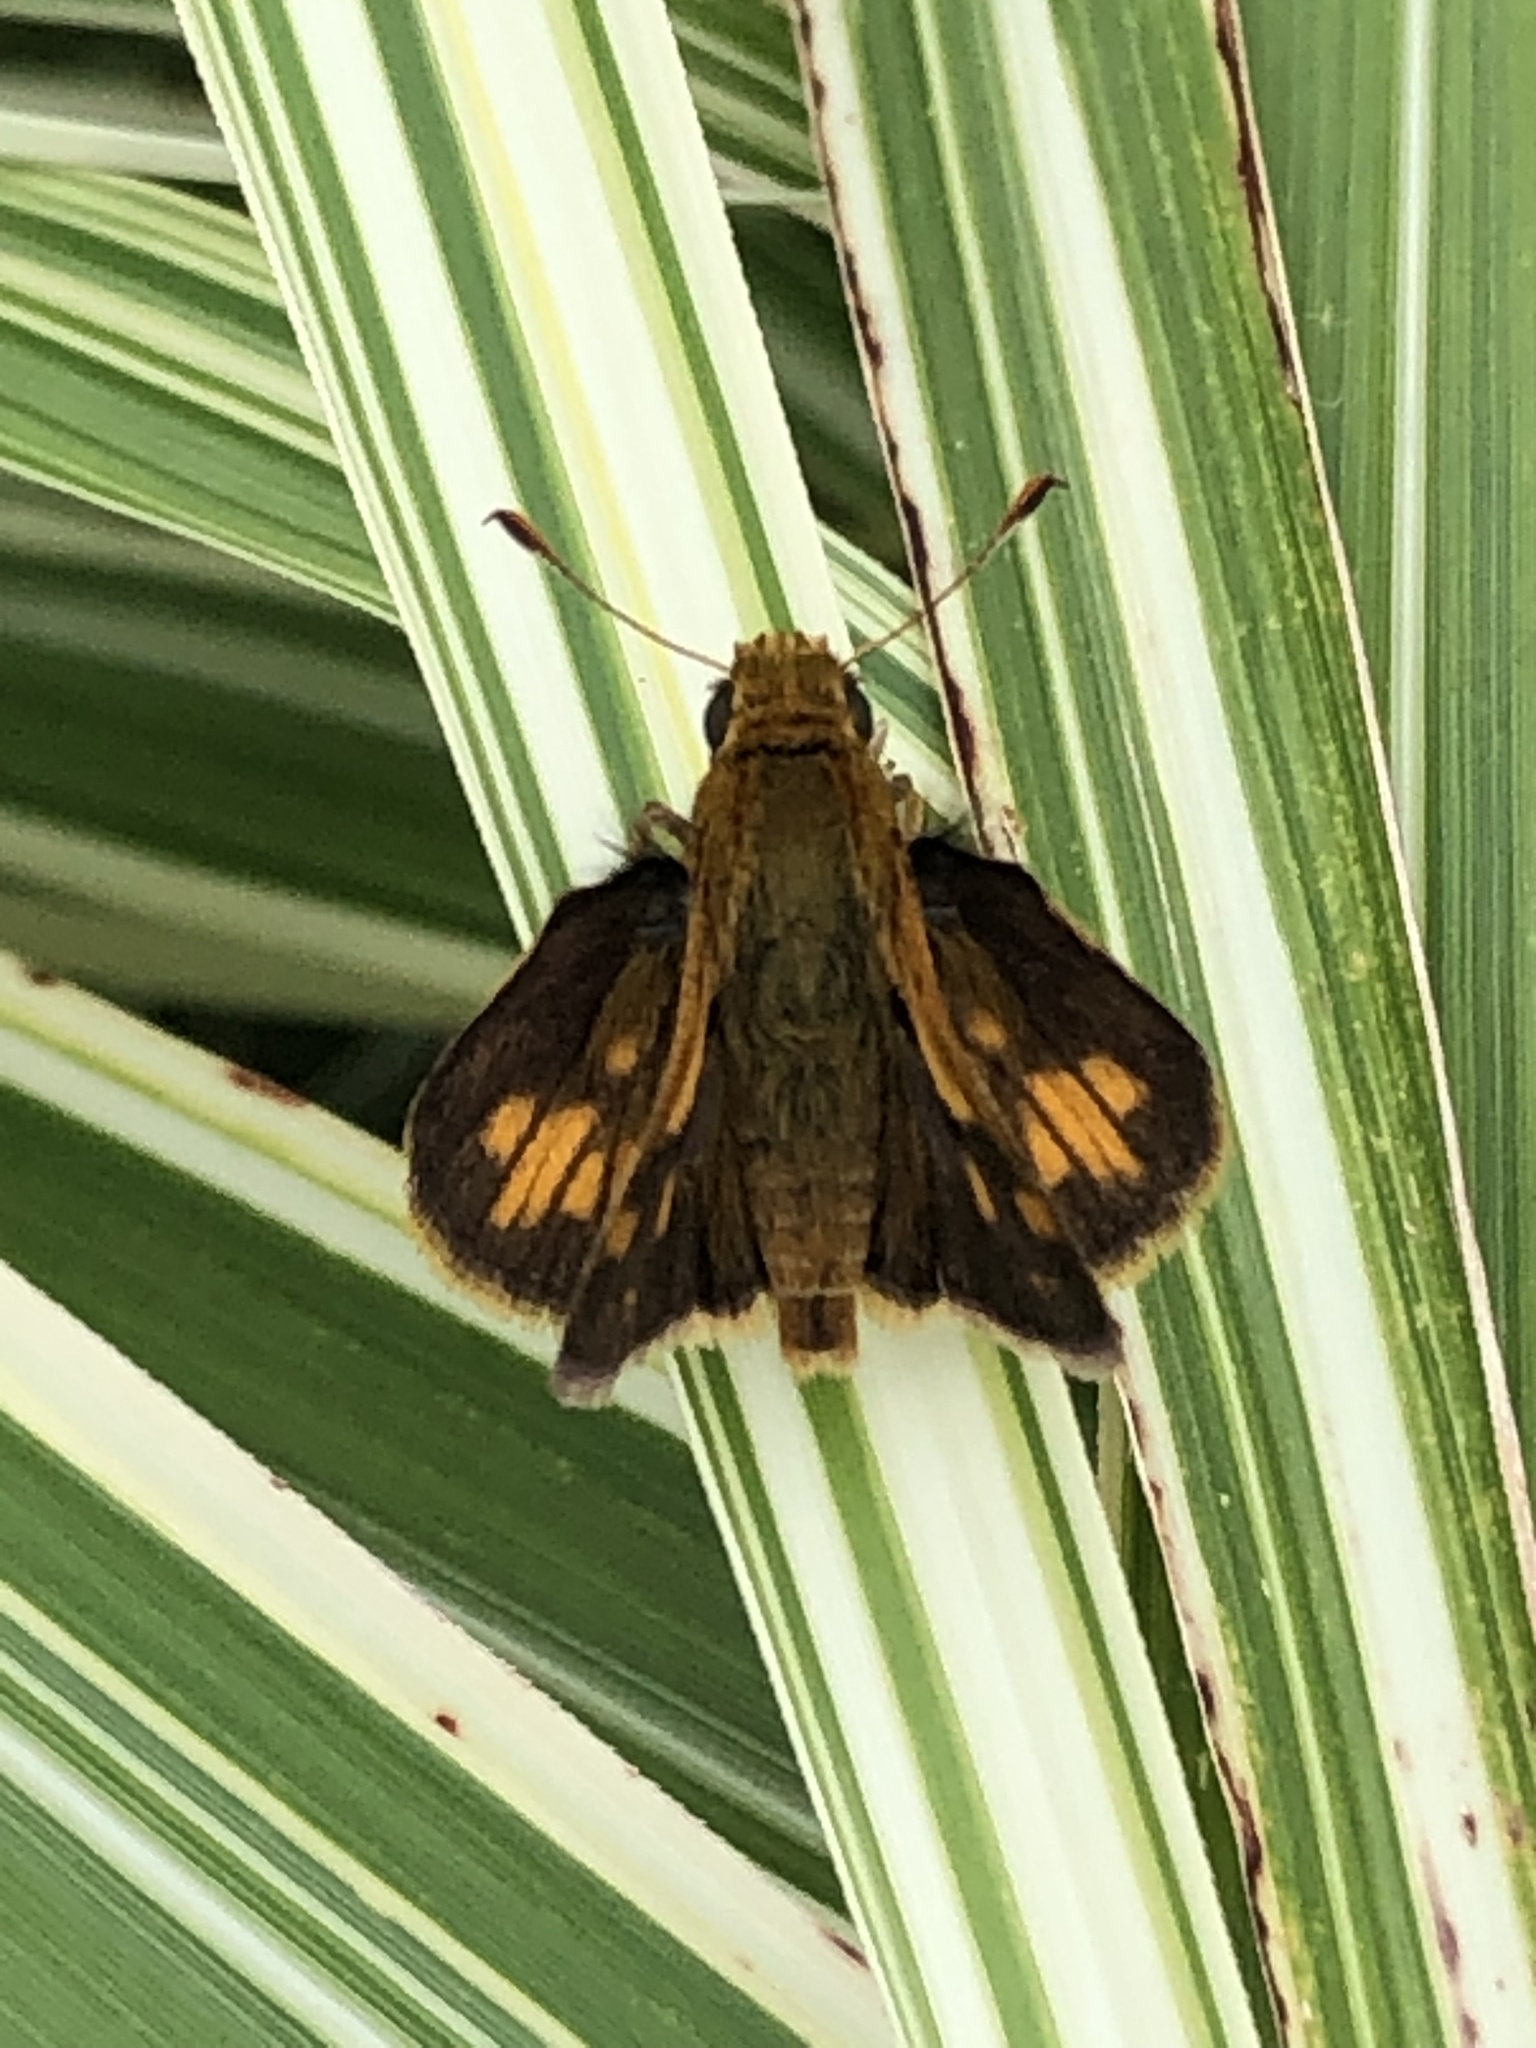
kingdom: Animalia
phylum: Arthropoda
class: Insecta
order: Lepidoptera
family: Hesperiidae
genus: Polites
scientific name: Polites coras
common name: Peck's skipper
